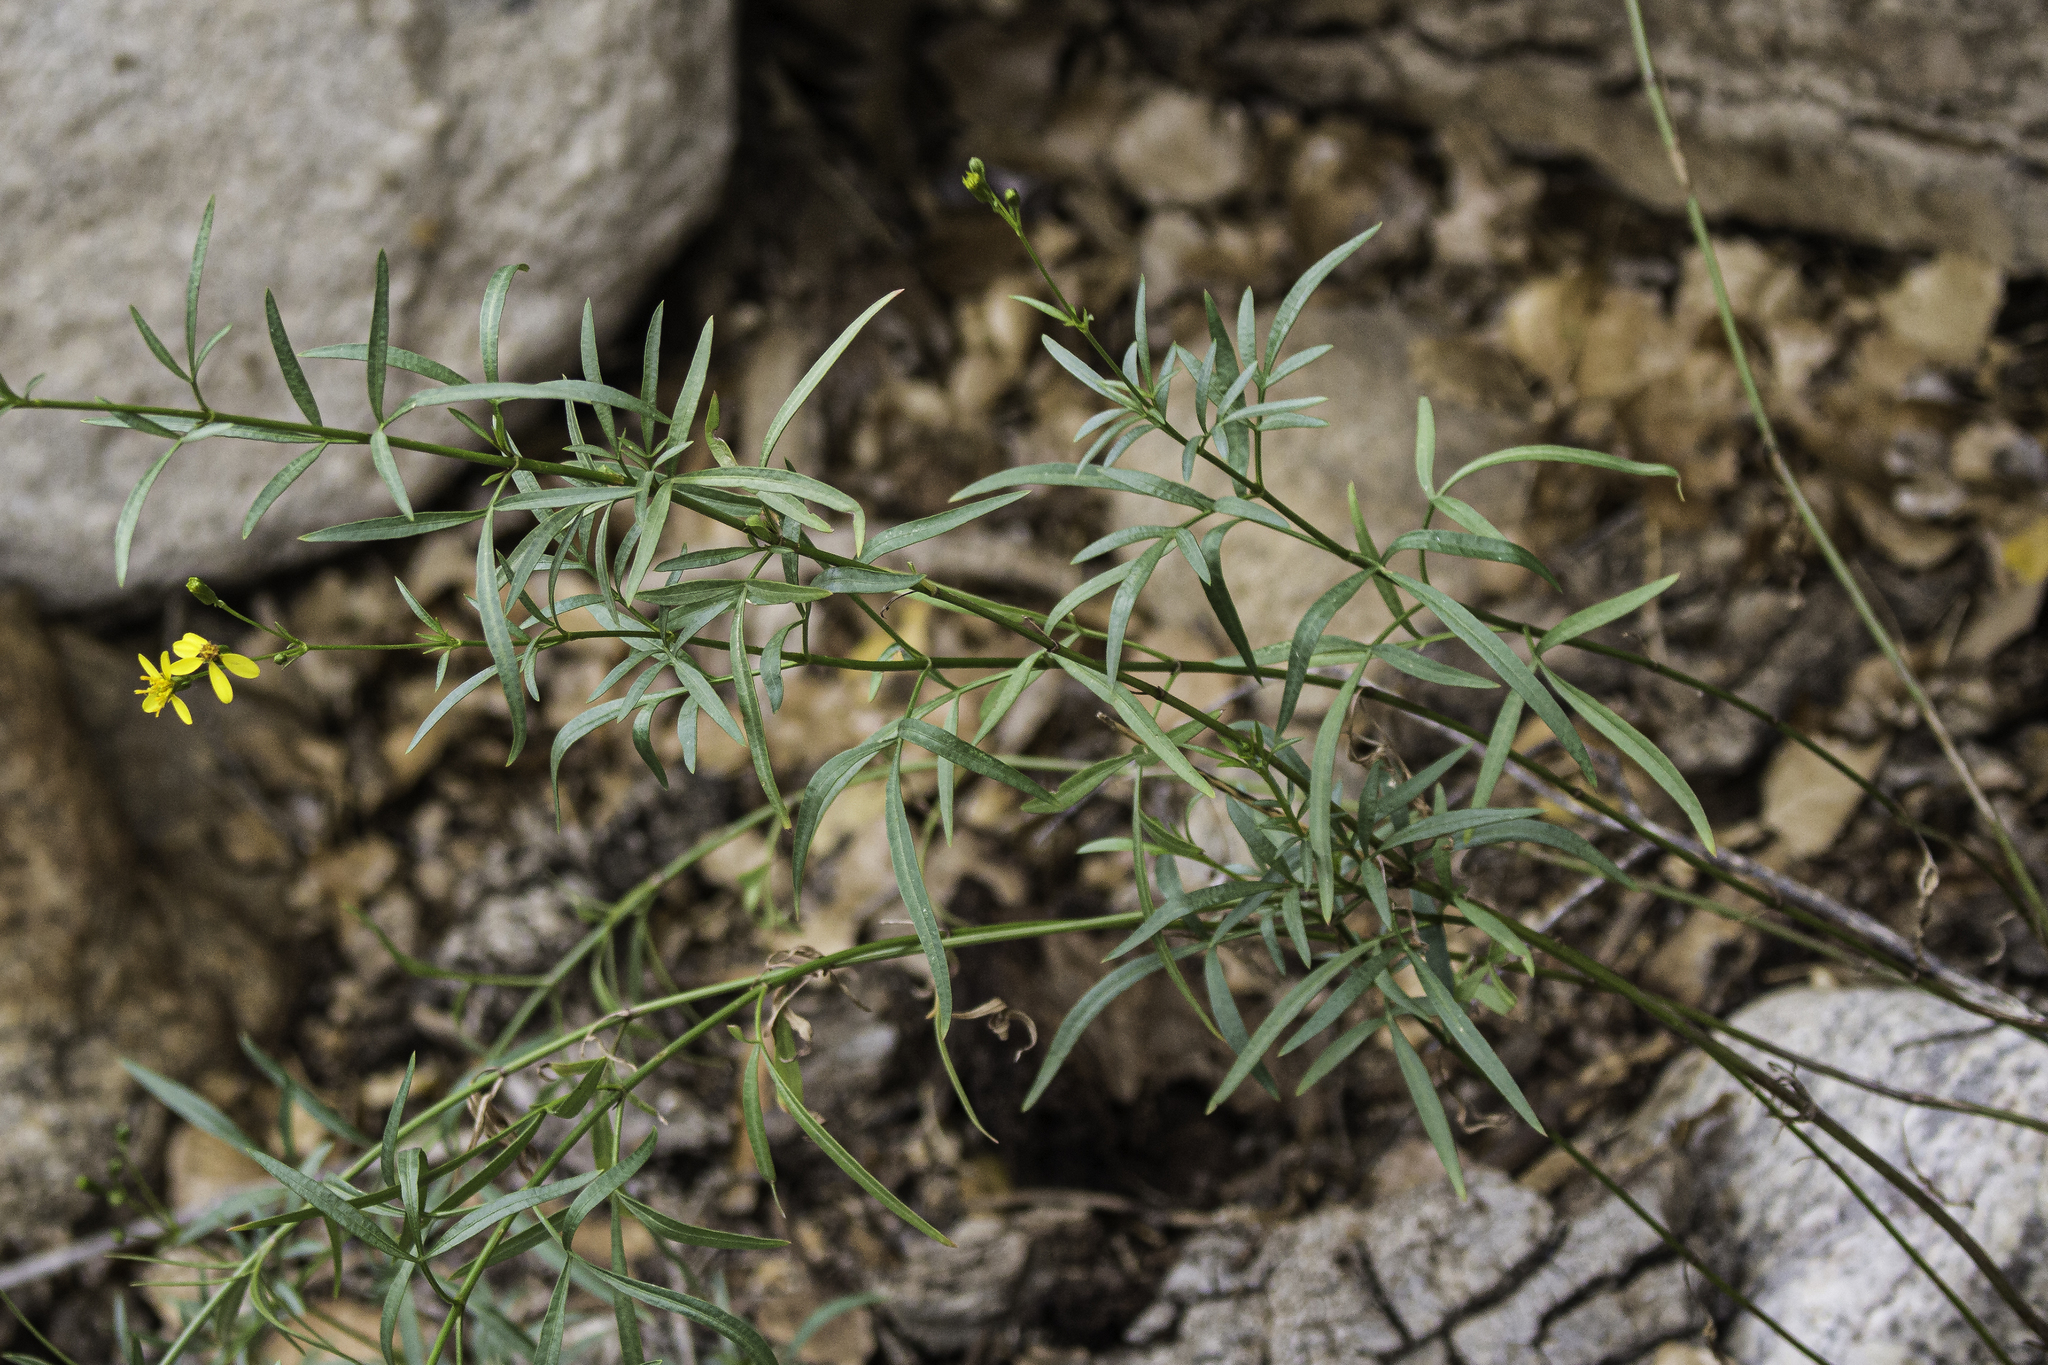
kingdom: Plantae
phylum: Tracheophyta
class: Magnoliopsida
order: Asterales
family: Asteraceae
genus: Coreocarpus
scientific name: Coreocarpus arizonicus
